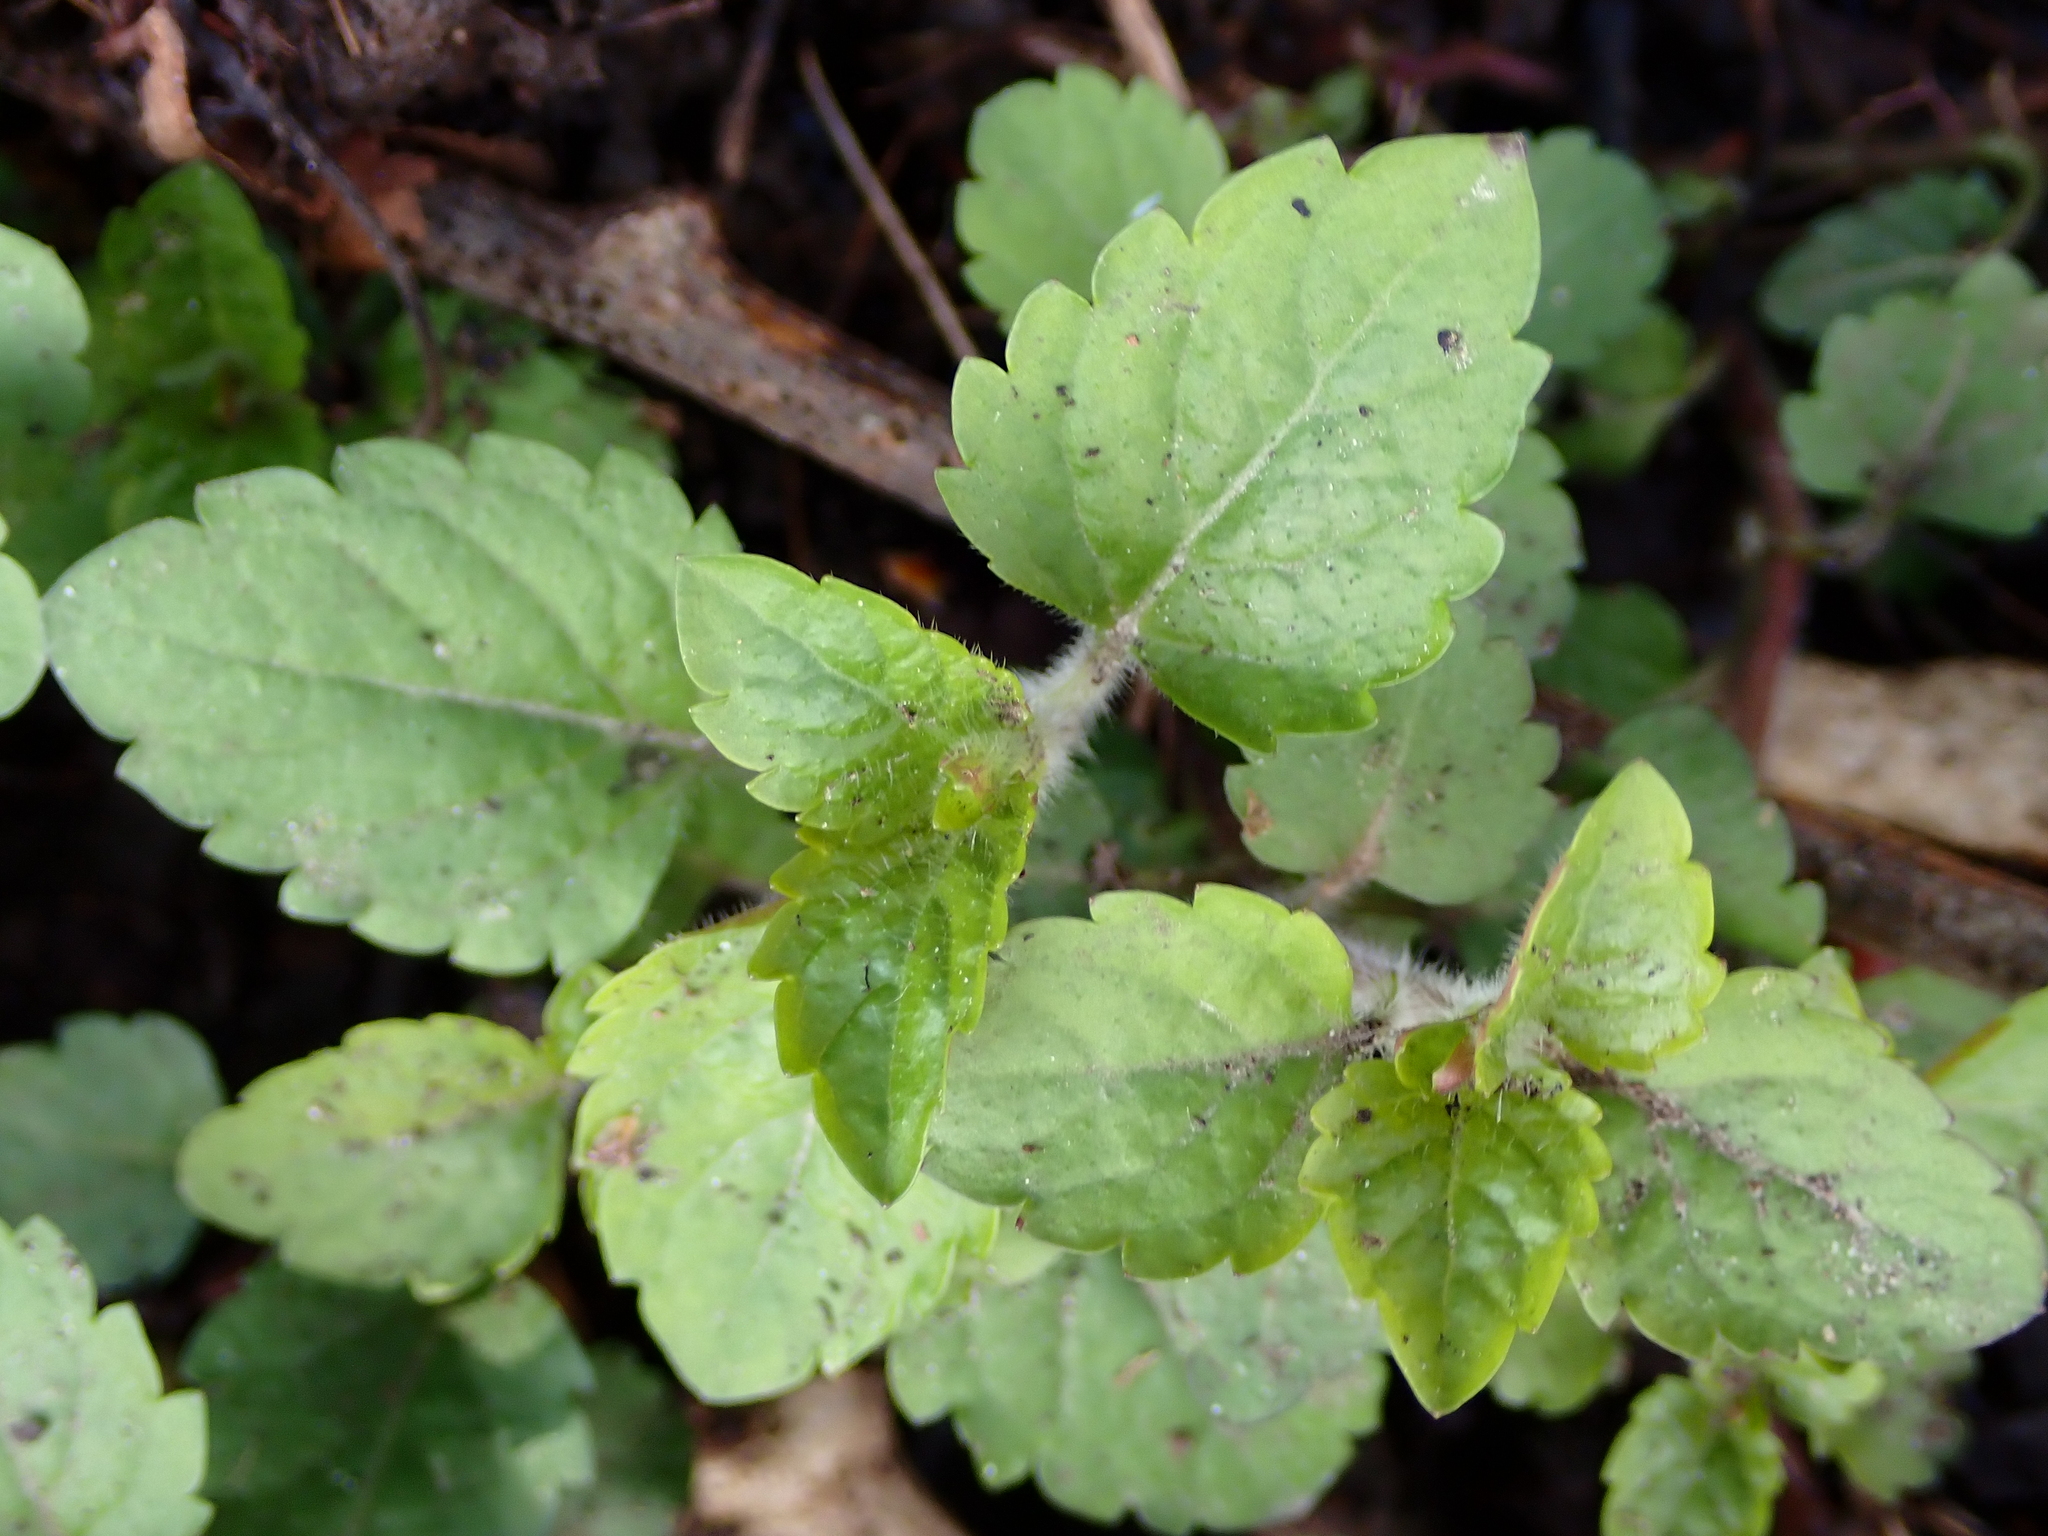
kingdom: Plantae
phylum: Tracheophyta
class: Magnoliopsida
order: Lamiales
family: Plantaginaceae
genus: Veronica
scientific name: Veronica montana
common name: Wood speedwell
